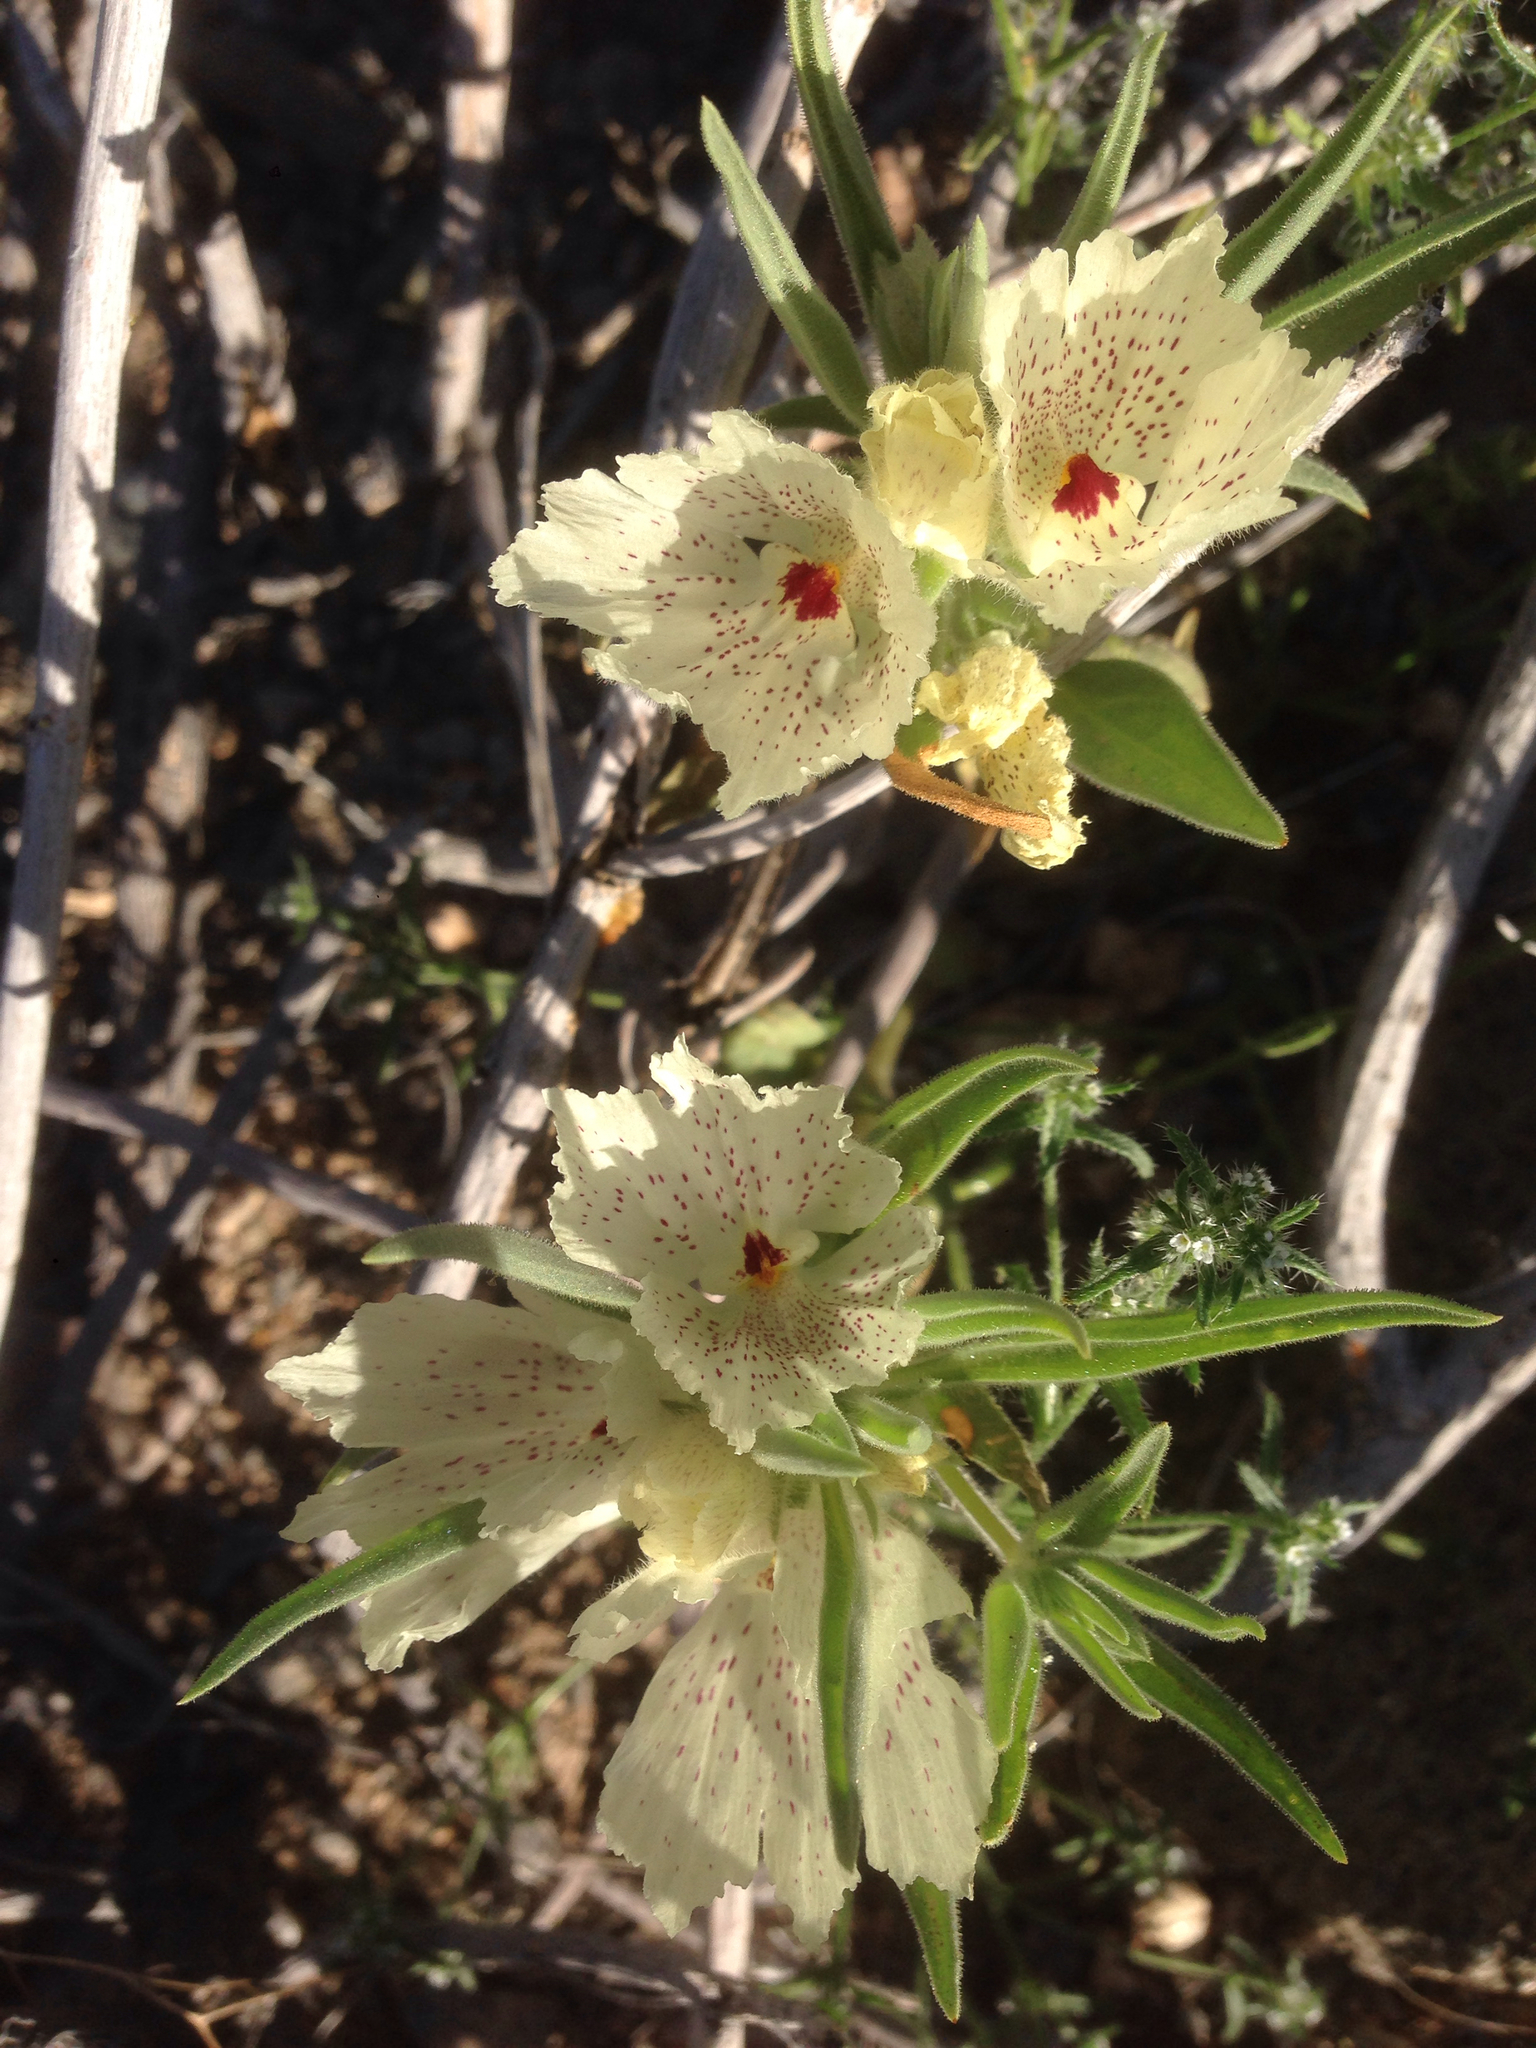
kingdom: Plantae
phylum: Tracheophyta
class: Magnoliopsida
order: Lamiales
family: Plantaginaceae
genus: Mohavea
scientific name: Mohavea confertiflora
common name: Ghost flower
